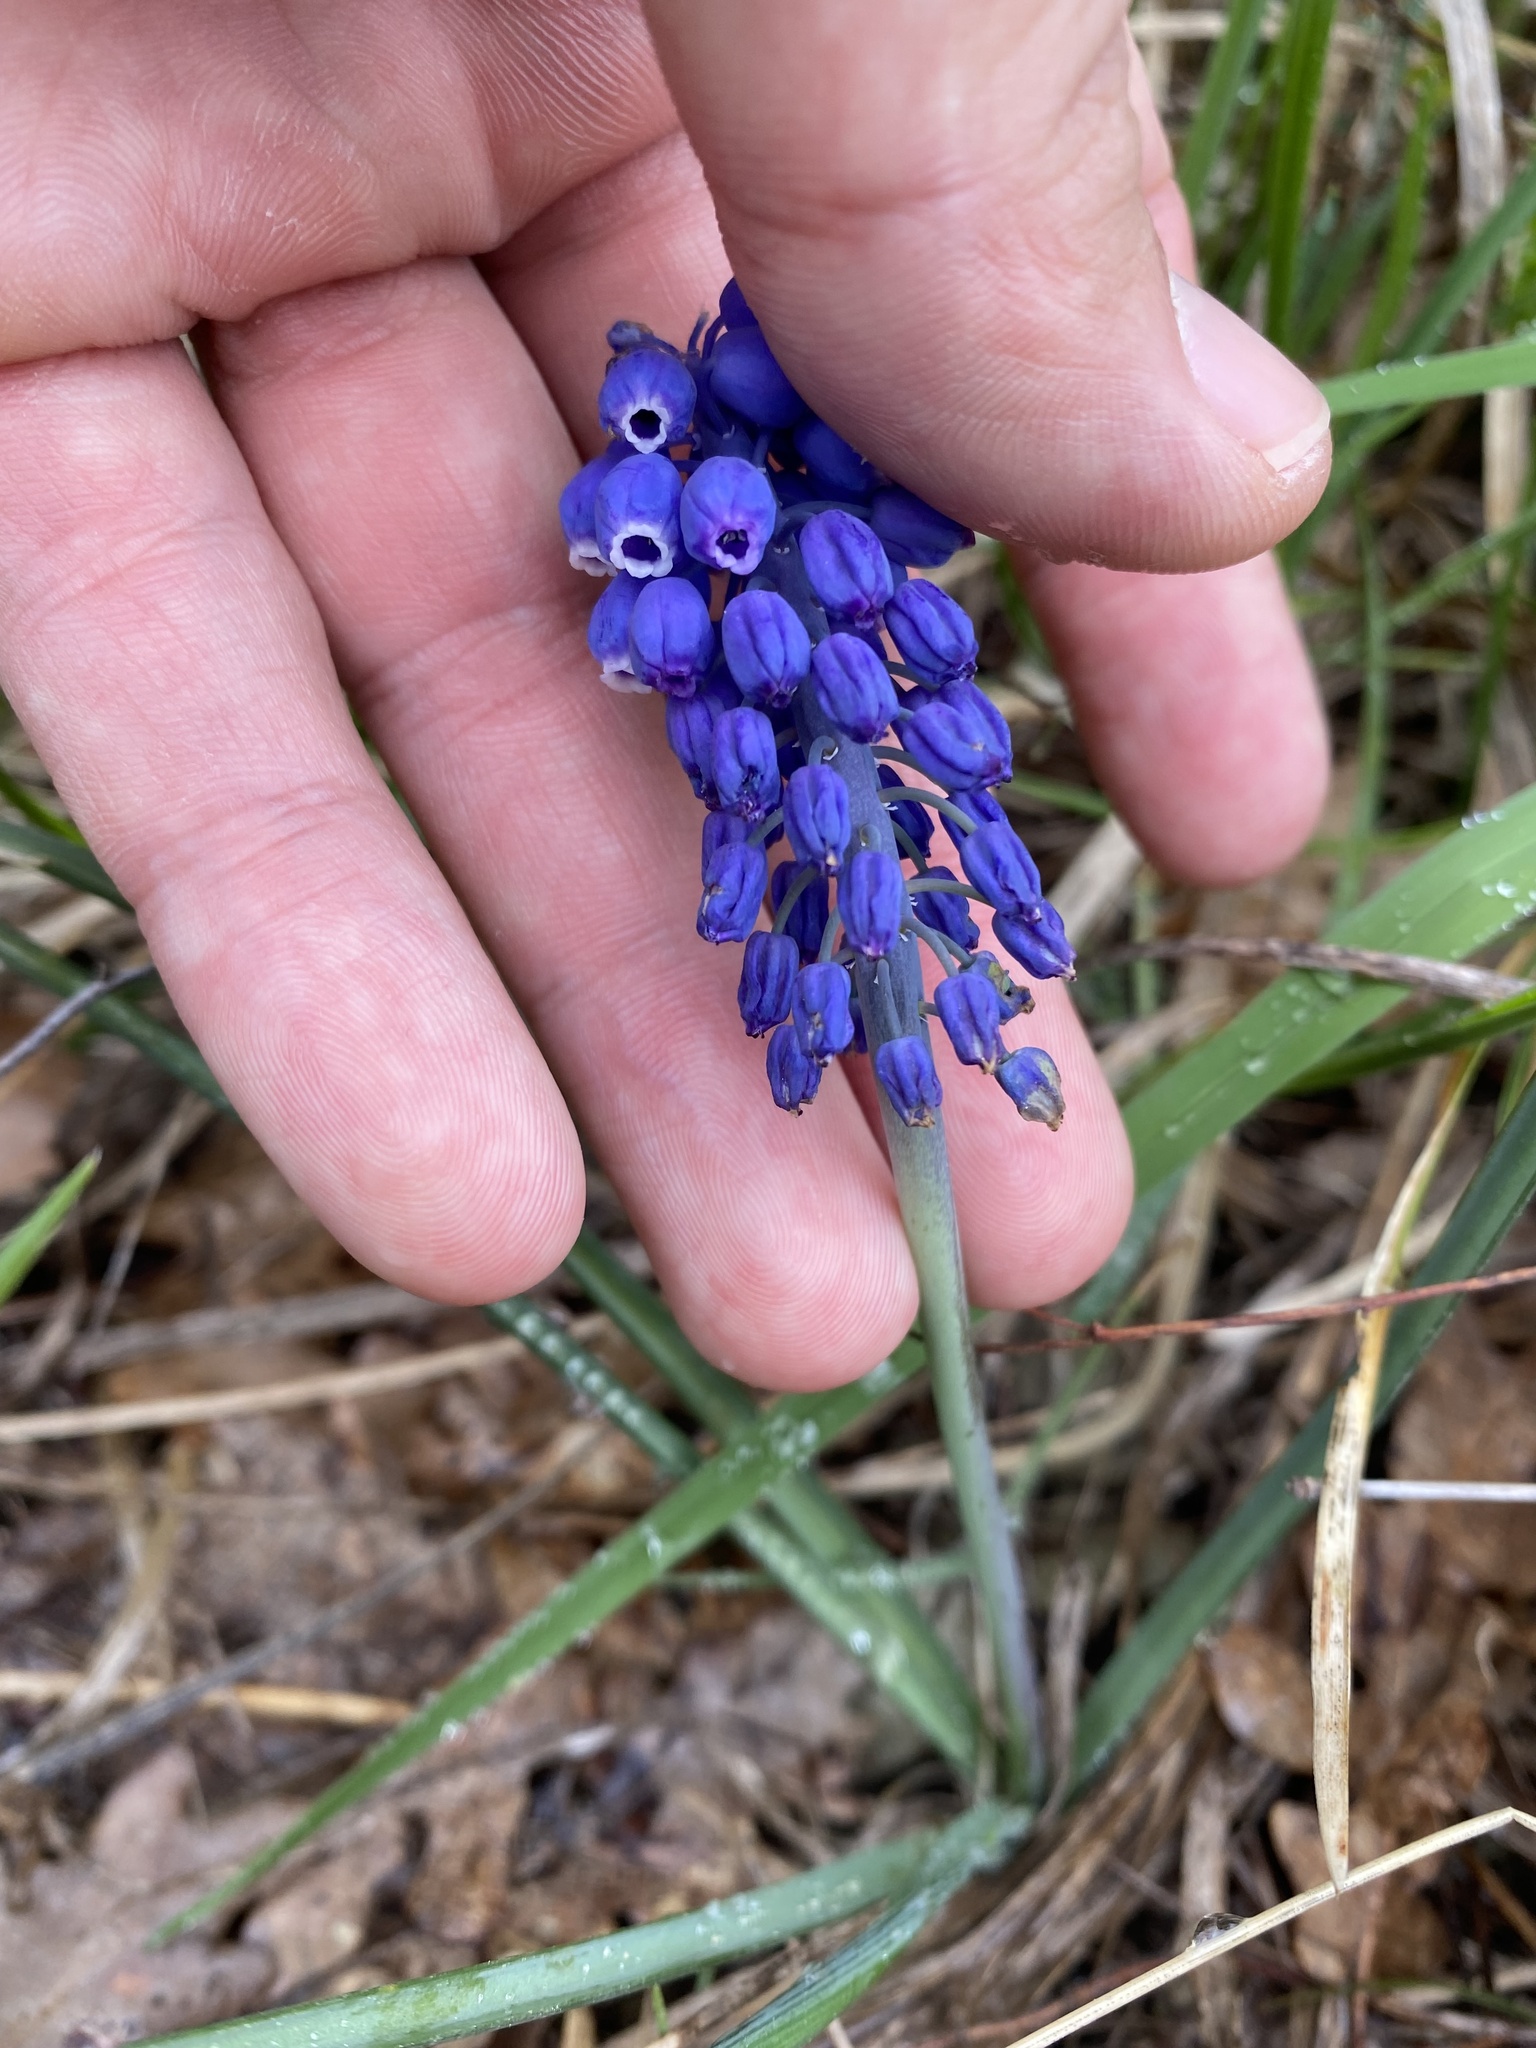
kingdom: Plantae
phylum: Tracheophyta
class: Liliopsida
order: Asparagales
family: Asparagaceae
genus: Muscari
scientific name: Muscari neglectum
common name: Grape-hyacinth
